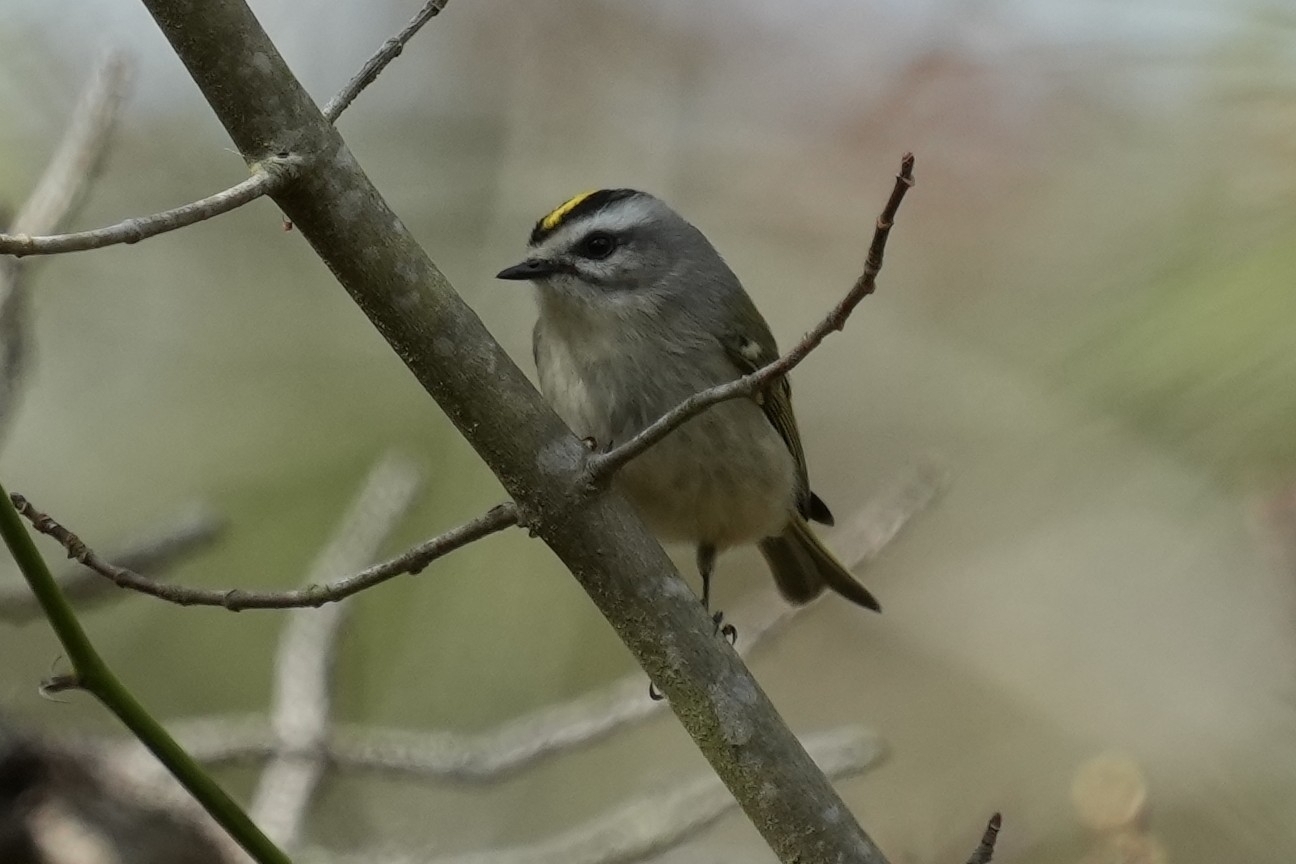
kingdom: Animalia
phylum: Chordata
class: Aves
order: Passeriformes
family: Regulidae
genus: Regulus
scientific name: Regulus satrapa
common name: Golden-crowned kinglet
